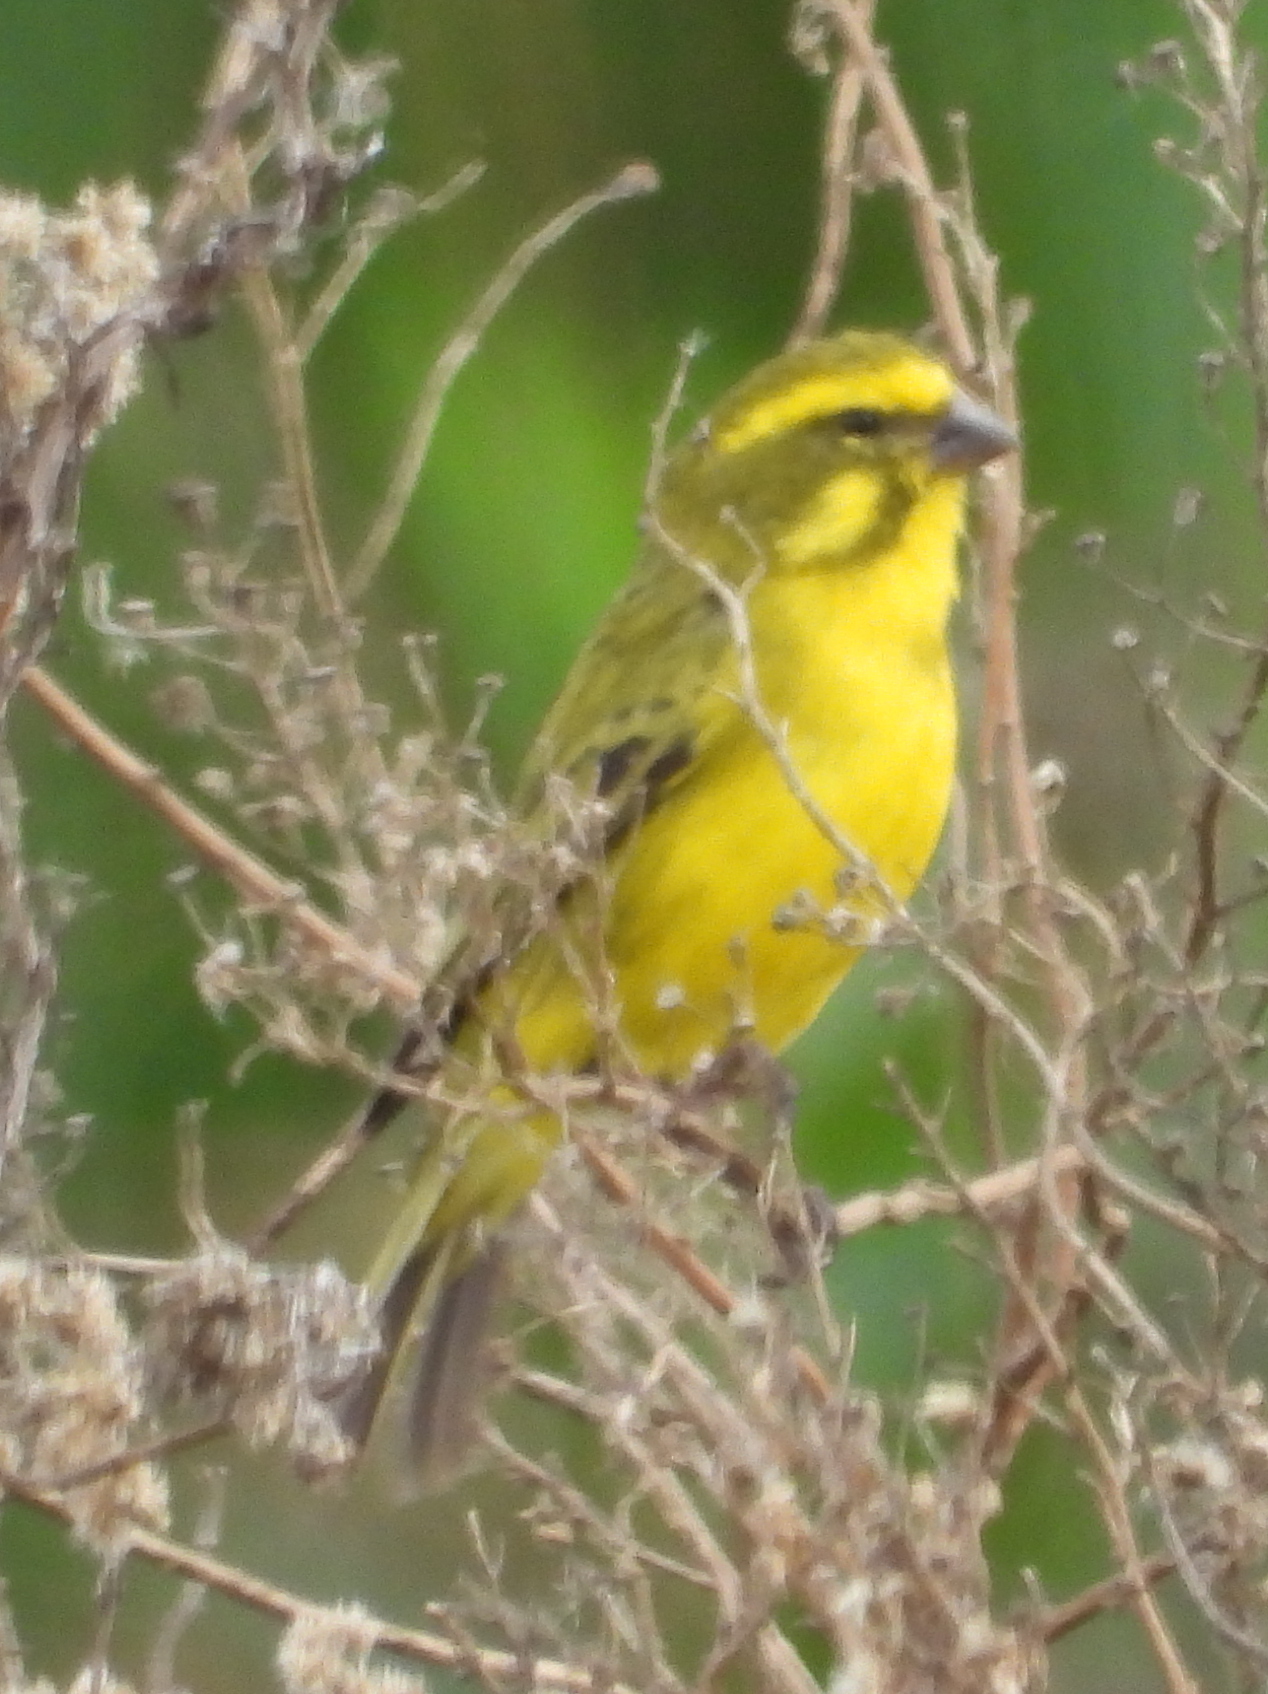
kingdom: Animalia
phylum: Chordata
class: Aves
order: Passeriformes
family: Fringillidae
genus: Crithagra
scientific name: Crithagra flaviventris
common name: Yellow canary
